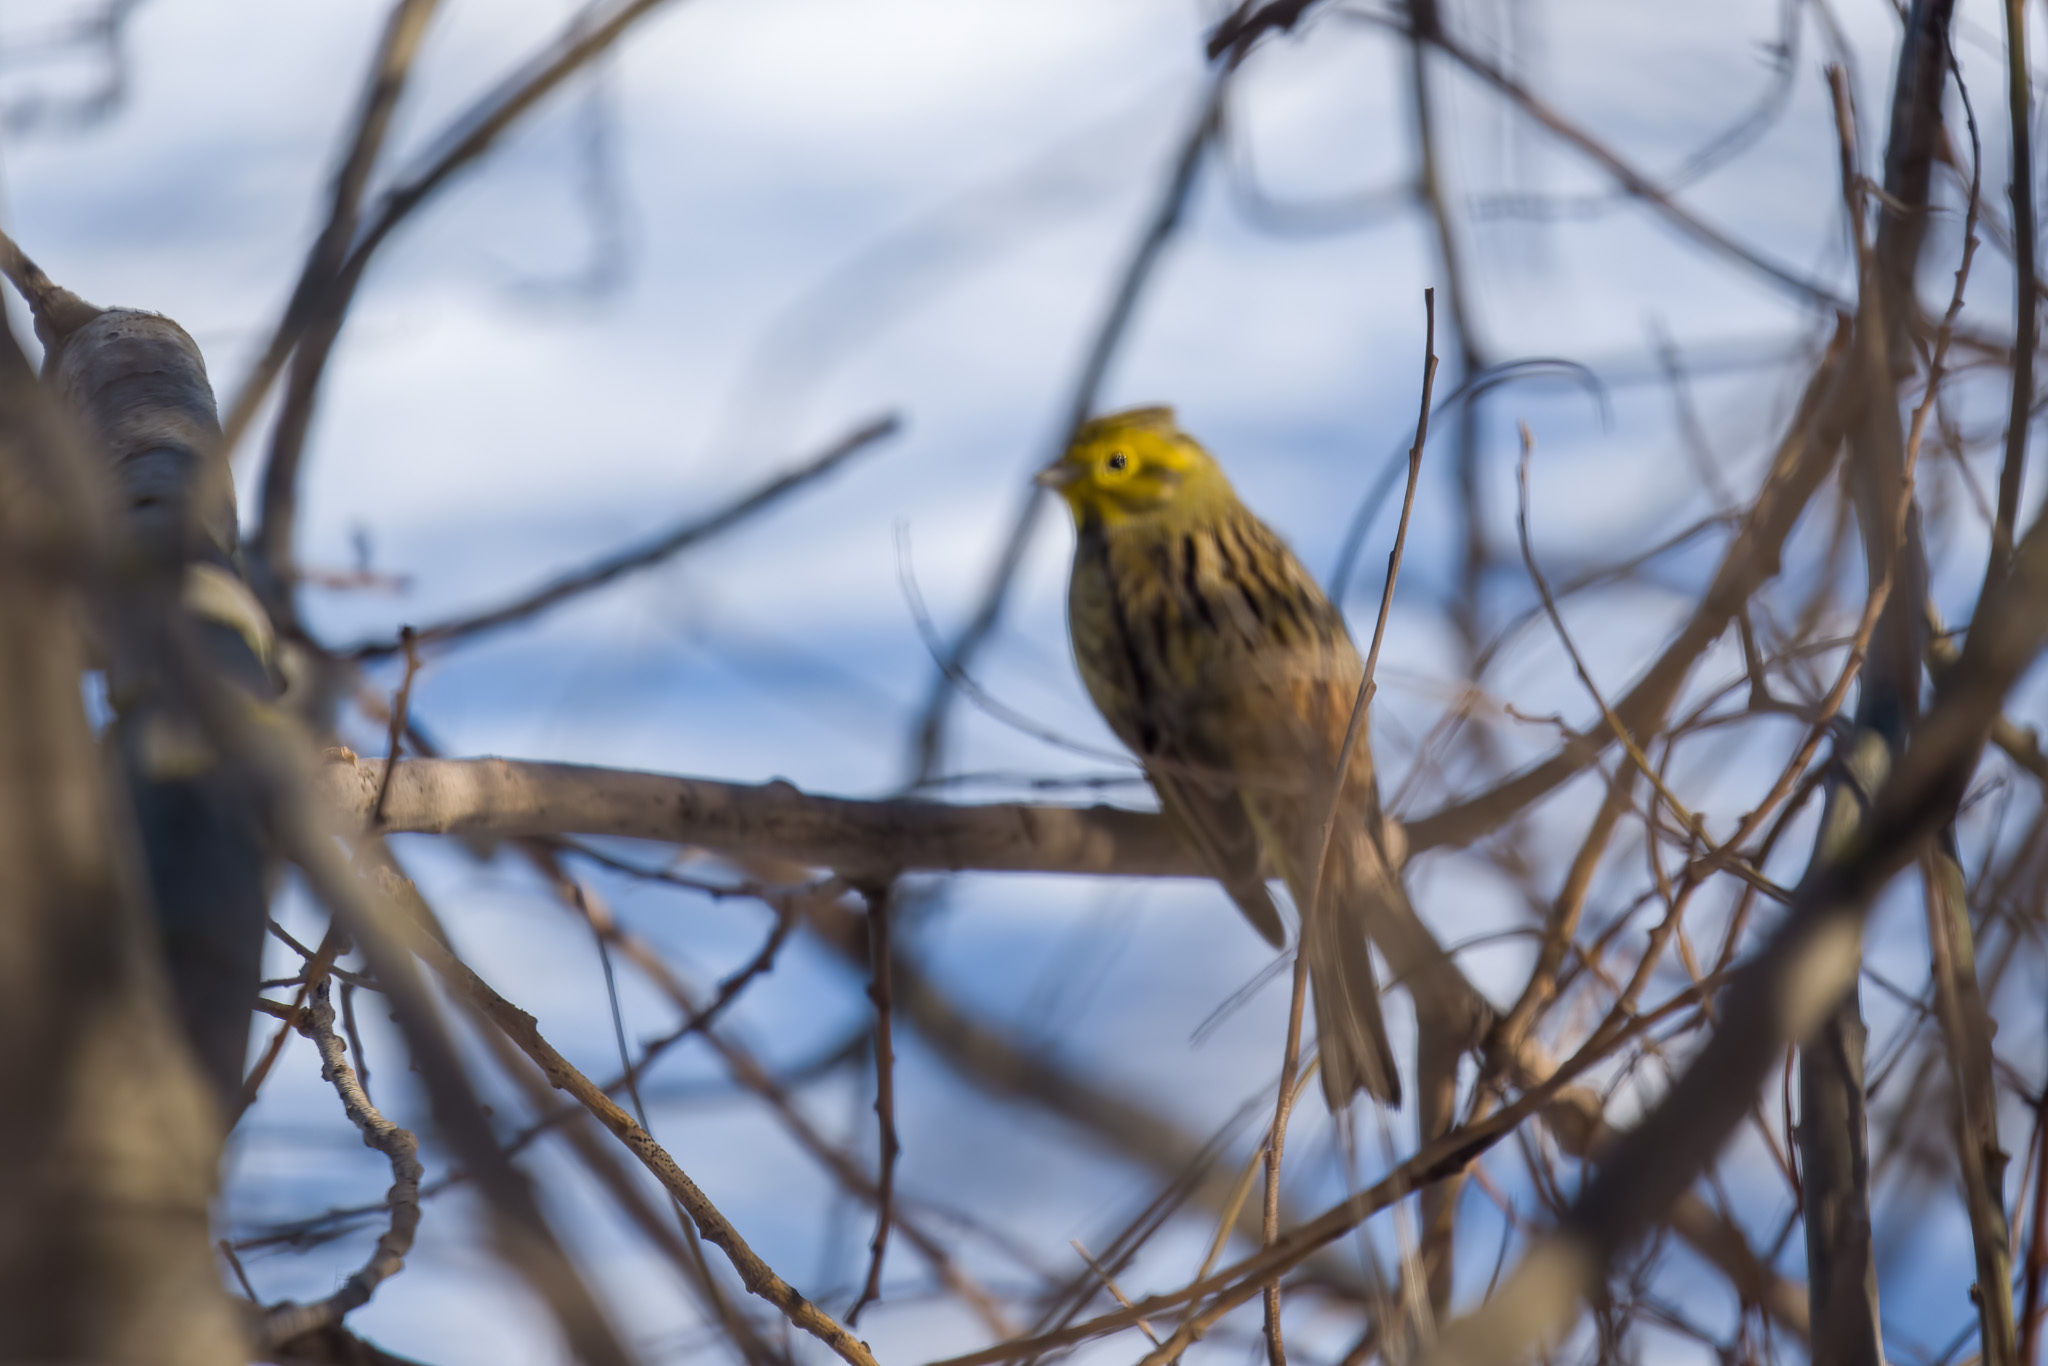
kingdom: Animalia
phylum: Chordata
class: Aves
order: Passeriformes
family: Emberizidae
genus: Emberiza
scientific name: Emberiza citrinella
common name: Yellowhammer
